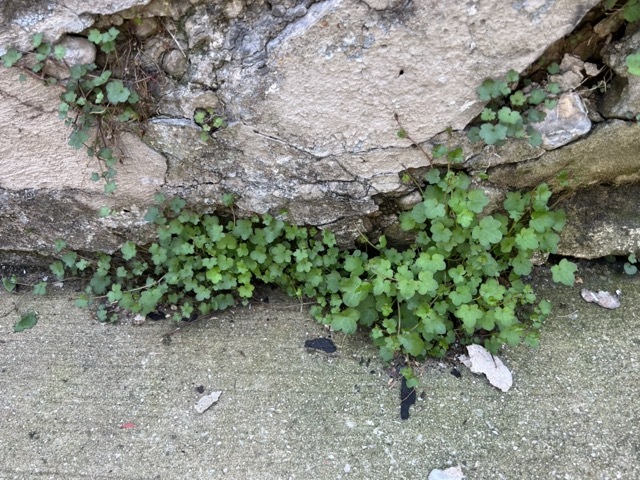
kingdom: Plantae
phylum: Tracheophyta
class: Magnoliopsida
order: Lamiales
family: Plantaginaceae
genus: Cymbalaria
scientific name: Cymbalaria muralis
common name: Ivy-leaved toadflax
